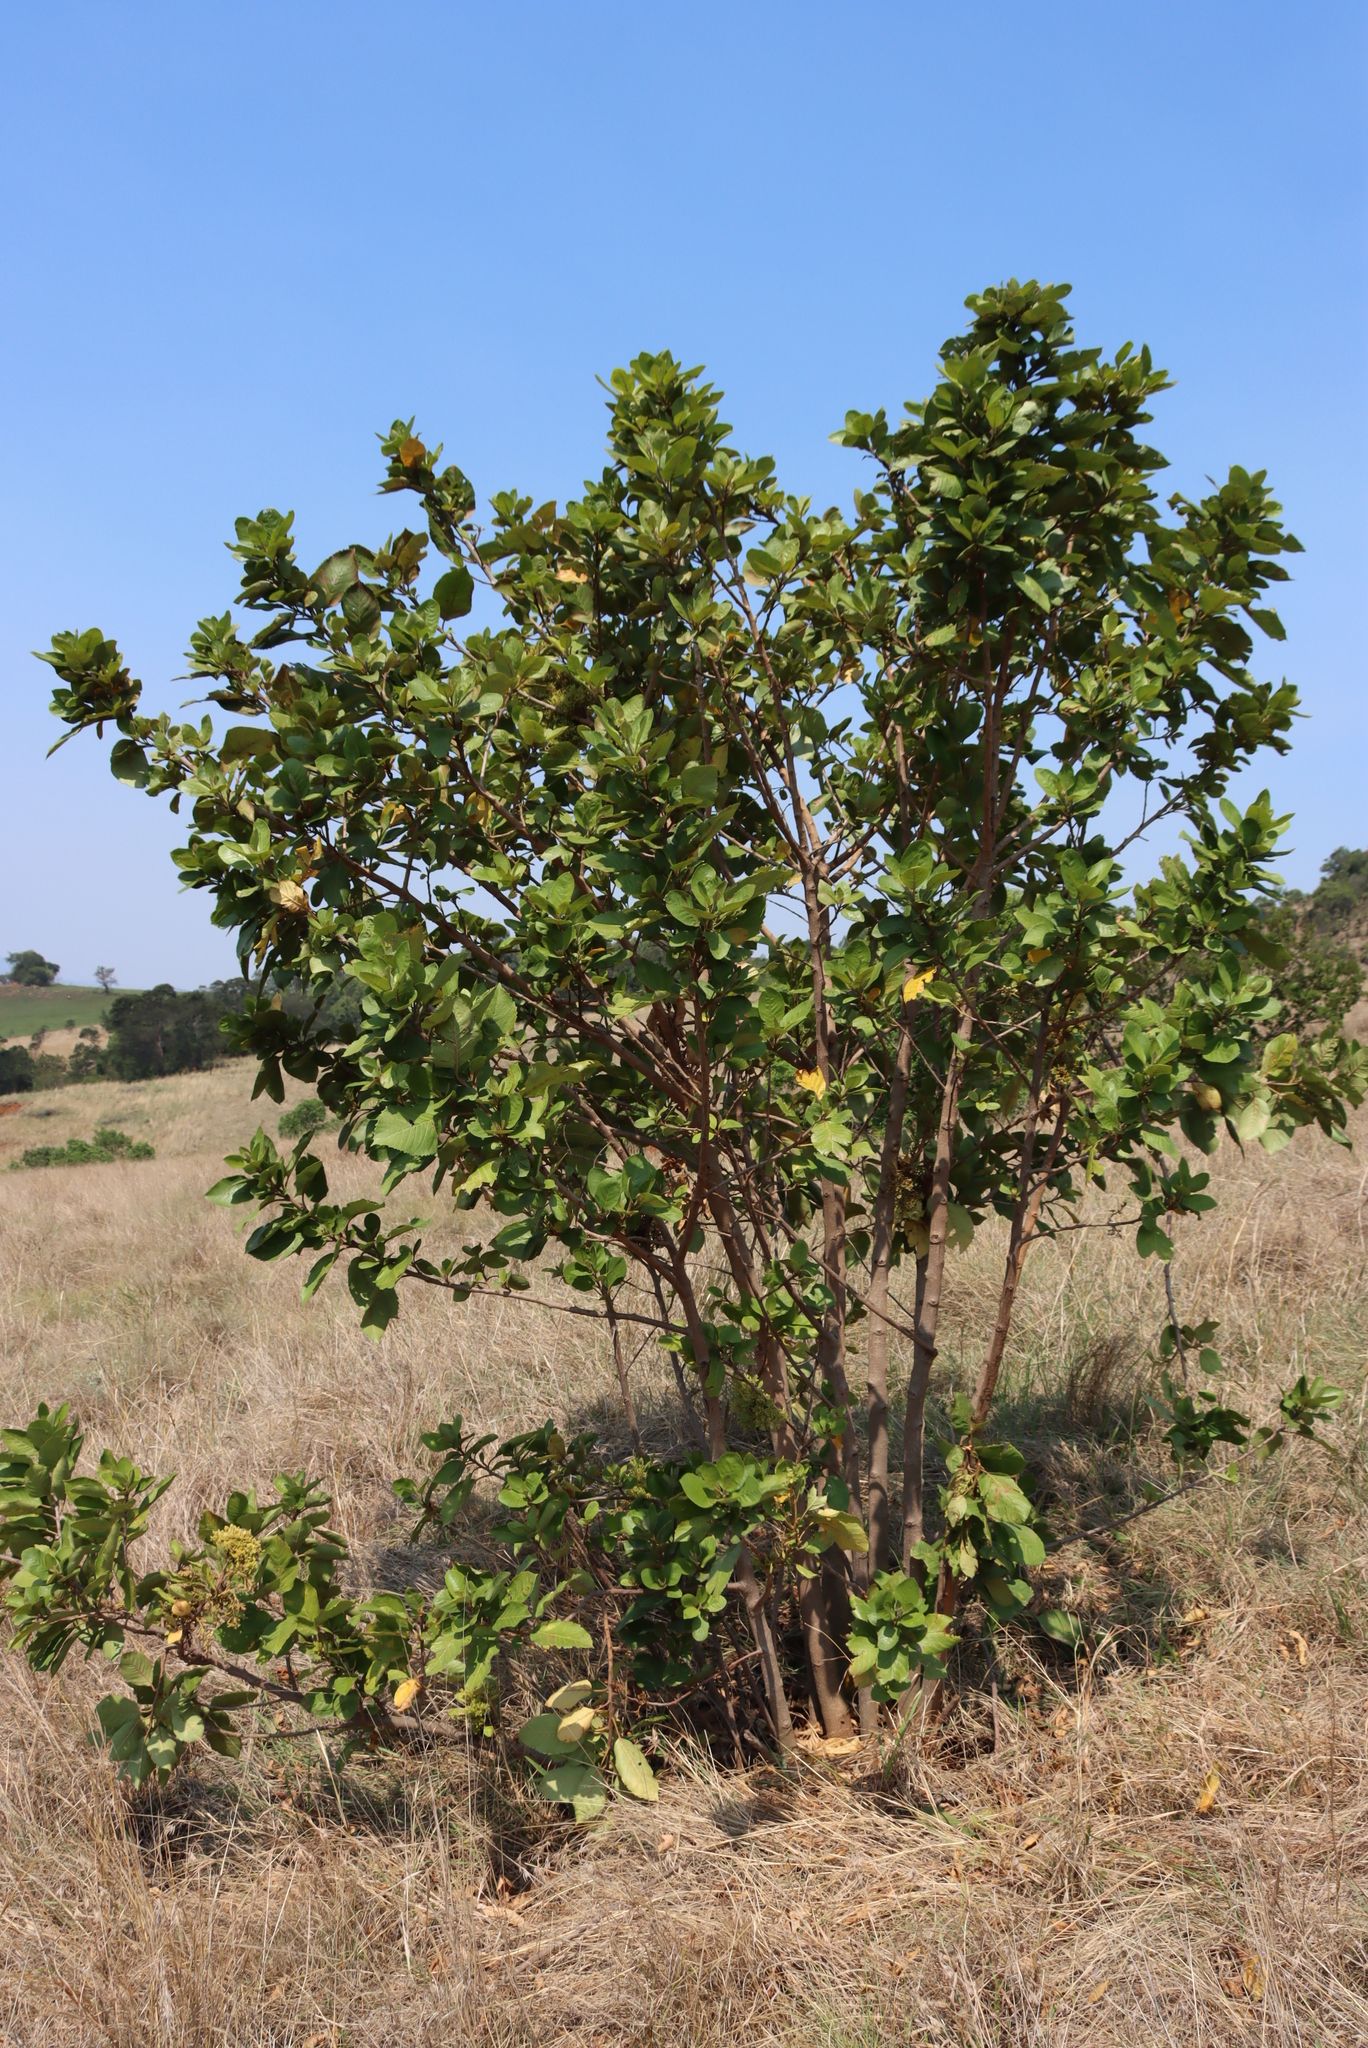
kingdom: Plantae
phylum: Tracheophyta
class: Magnoliopsida
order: Ericales
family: Primulaceae
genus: Maesa
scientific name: Maesa lanceolata
